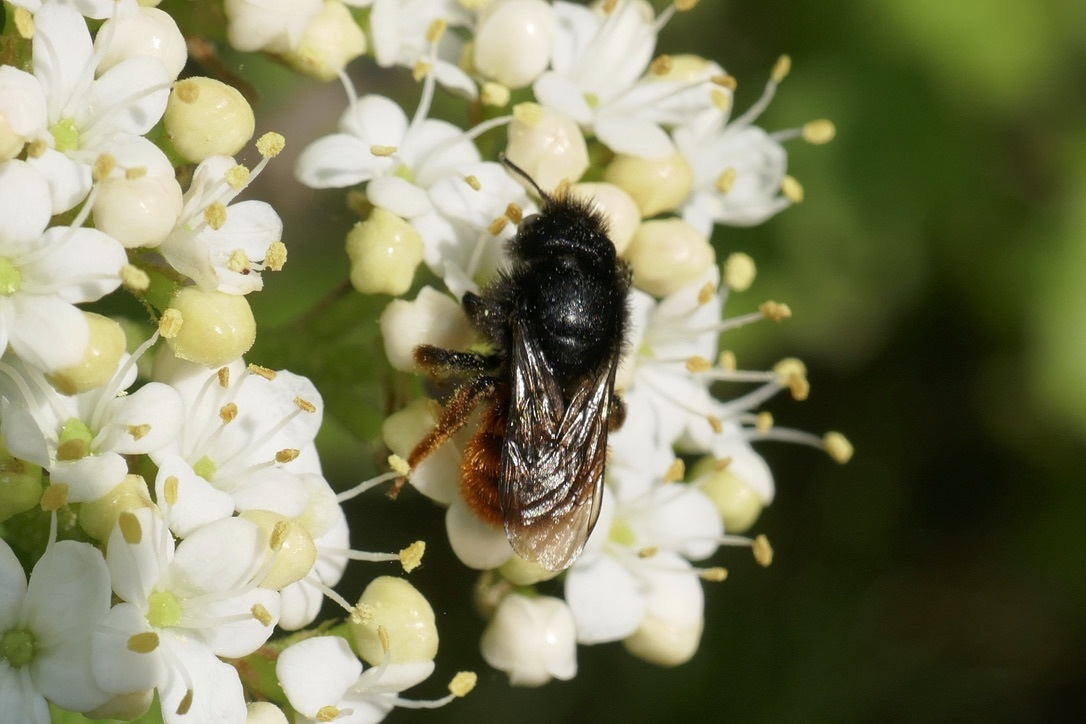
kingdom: Animalia
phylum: Arthropoda
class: Insecta
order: Hymenoptera
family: Megachilidae
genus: Osmia
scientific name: Osmia bicolor
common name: Red-tailed mason bee
